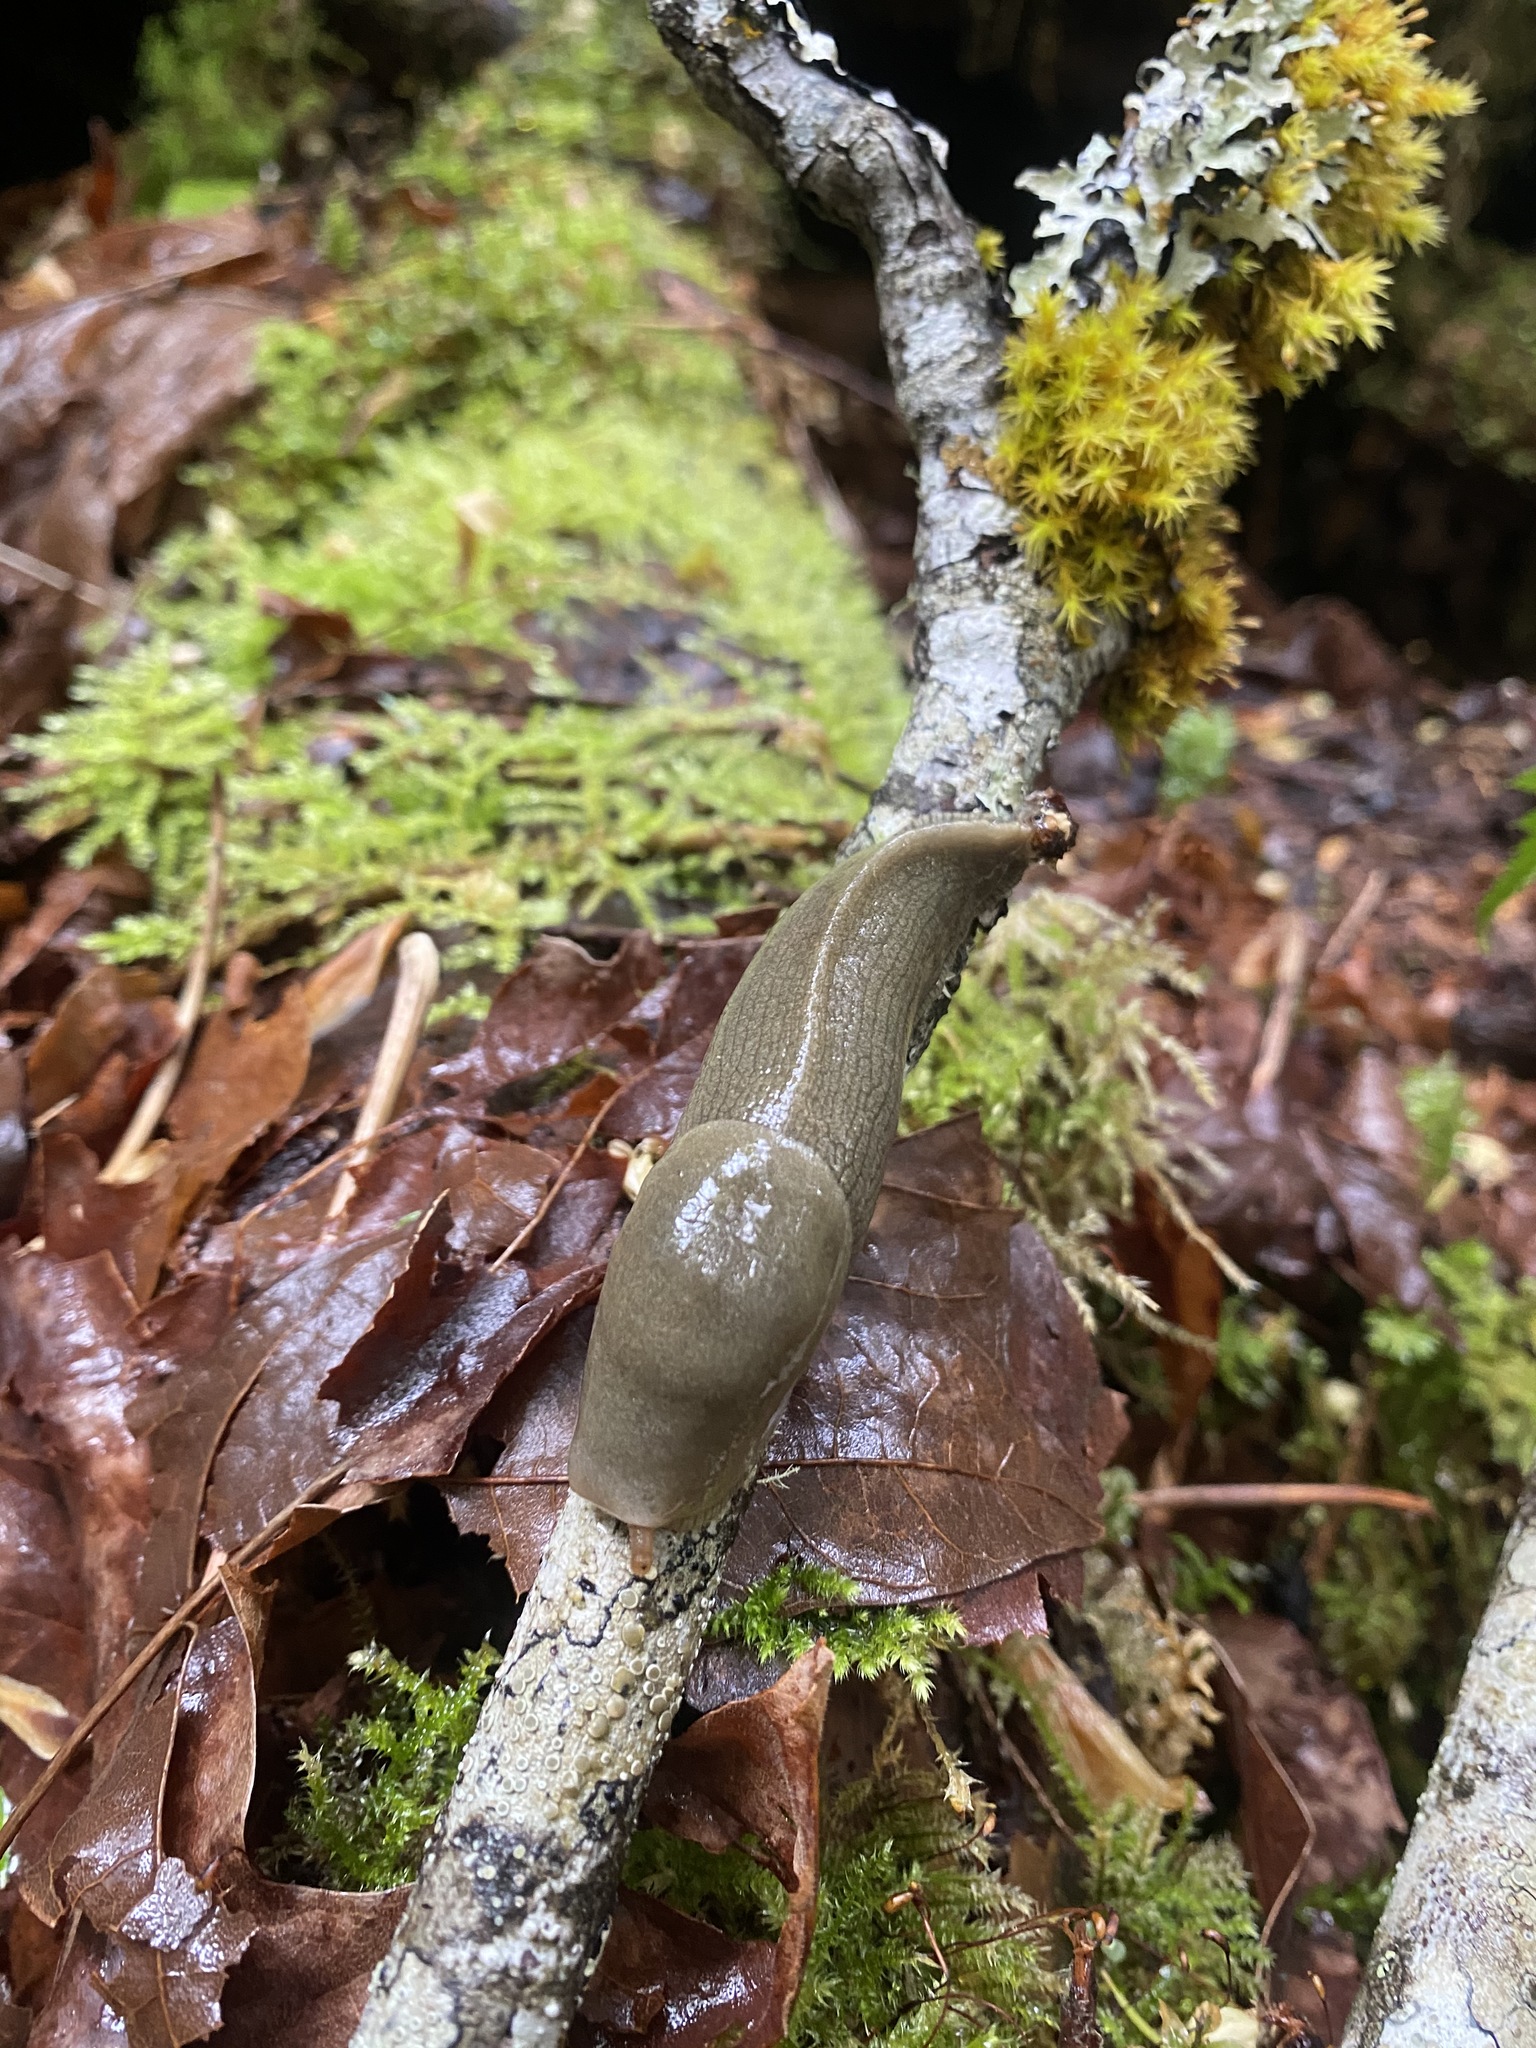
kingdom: Animalia
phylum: Mollusca
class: Gastropoda
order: Stylommatophora
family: Ariolimacidae
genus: Ariolimax
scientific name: Ariolimax columbianus
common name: Pacific banana slug
